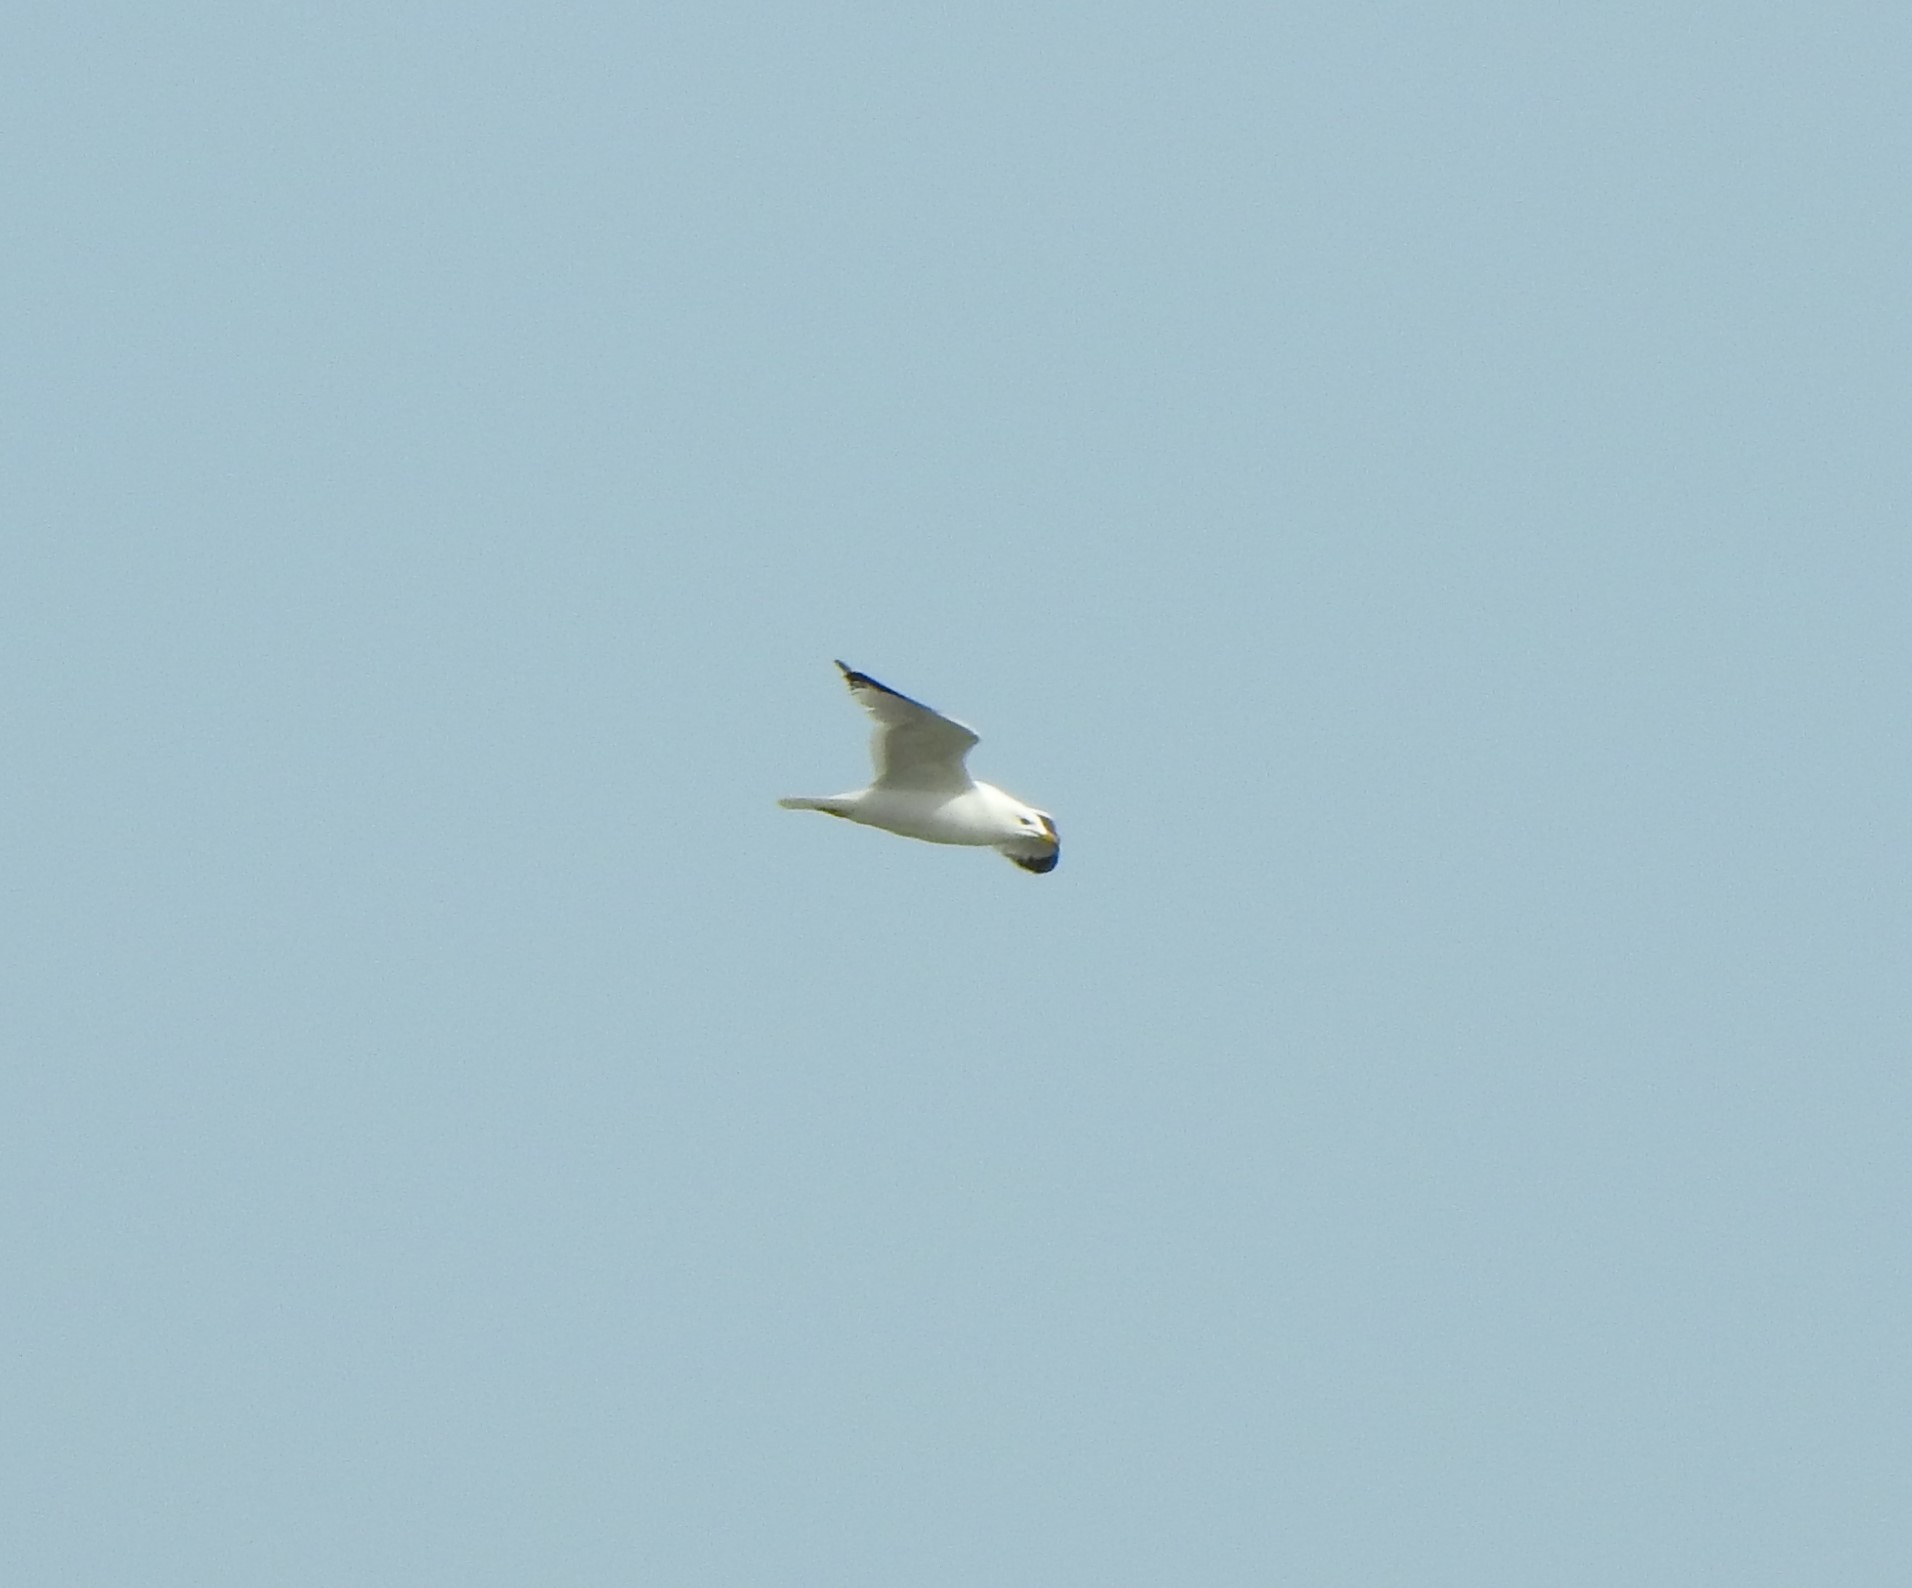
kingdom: Animalia
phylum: Chordata
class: Aves
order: Charadriiformes
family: Laridae
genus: Larus
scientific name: Larus delawarensis
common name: Ring-billed gull
